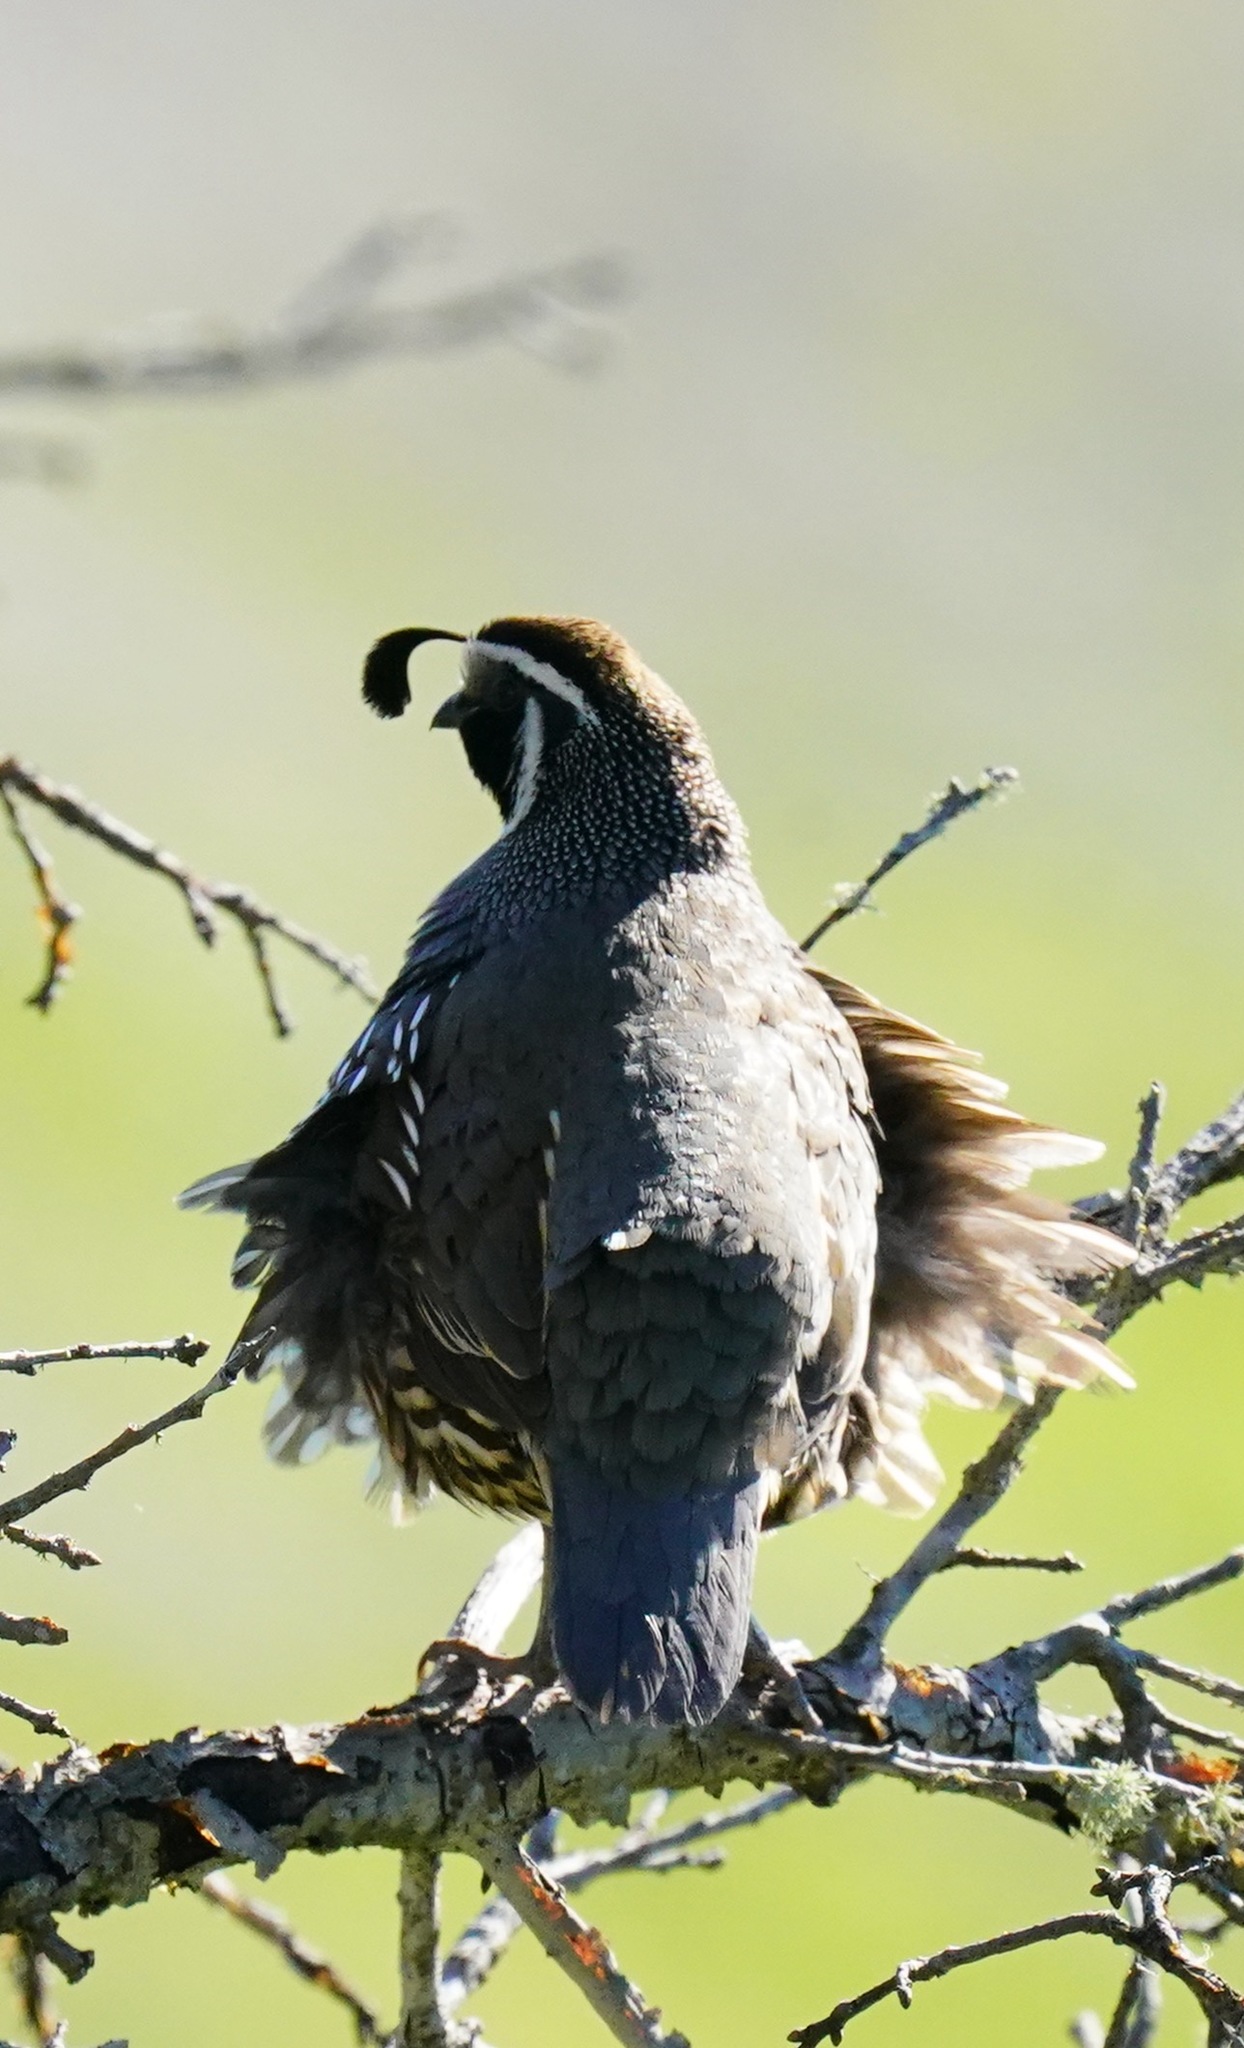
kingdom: Animalia
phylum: Chordata
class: Aves
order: Galliformes
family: Odontophoridae
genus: Callipepla
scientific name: Callipepla californica
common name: California quail
